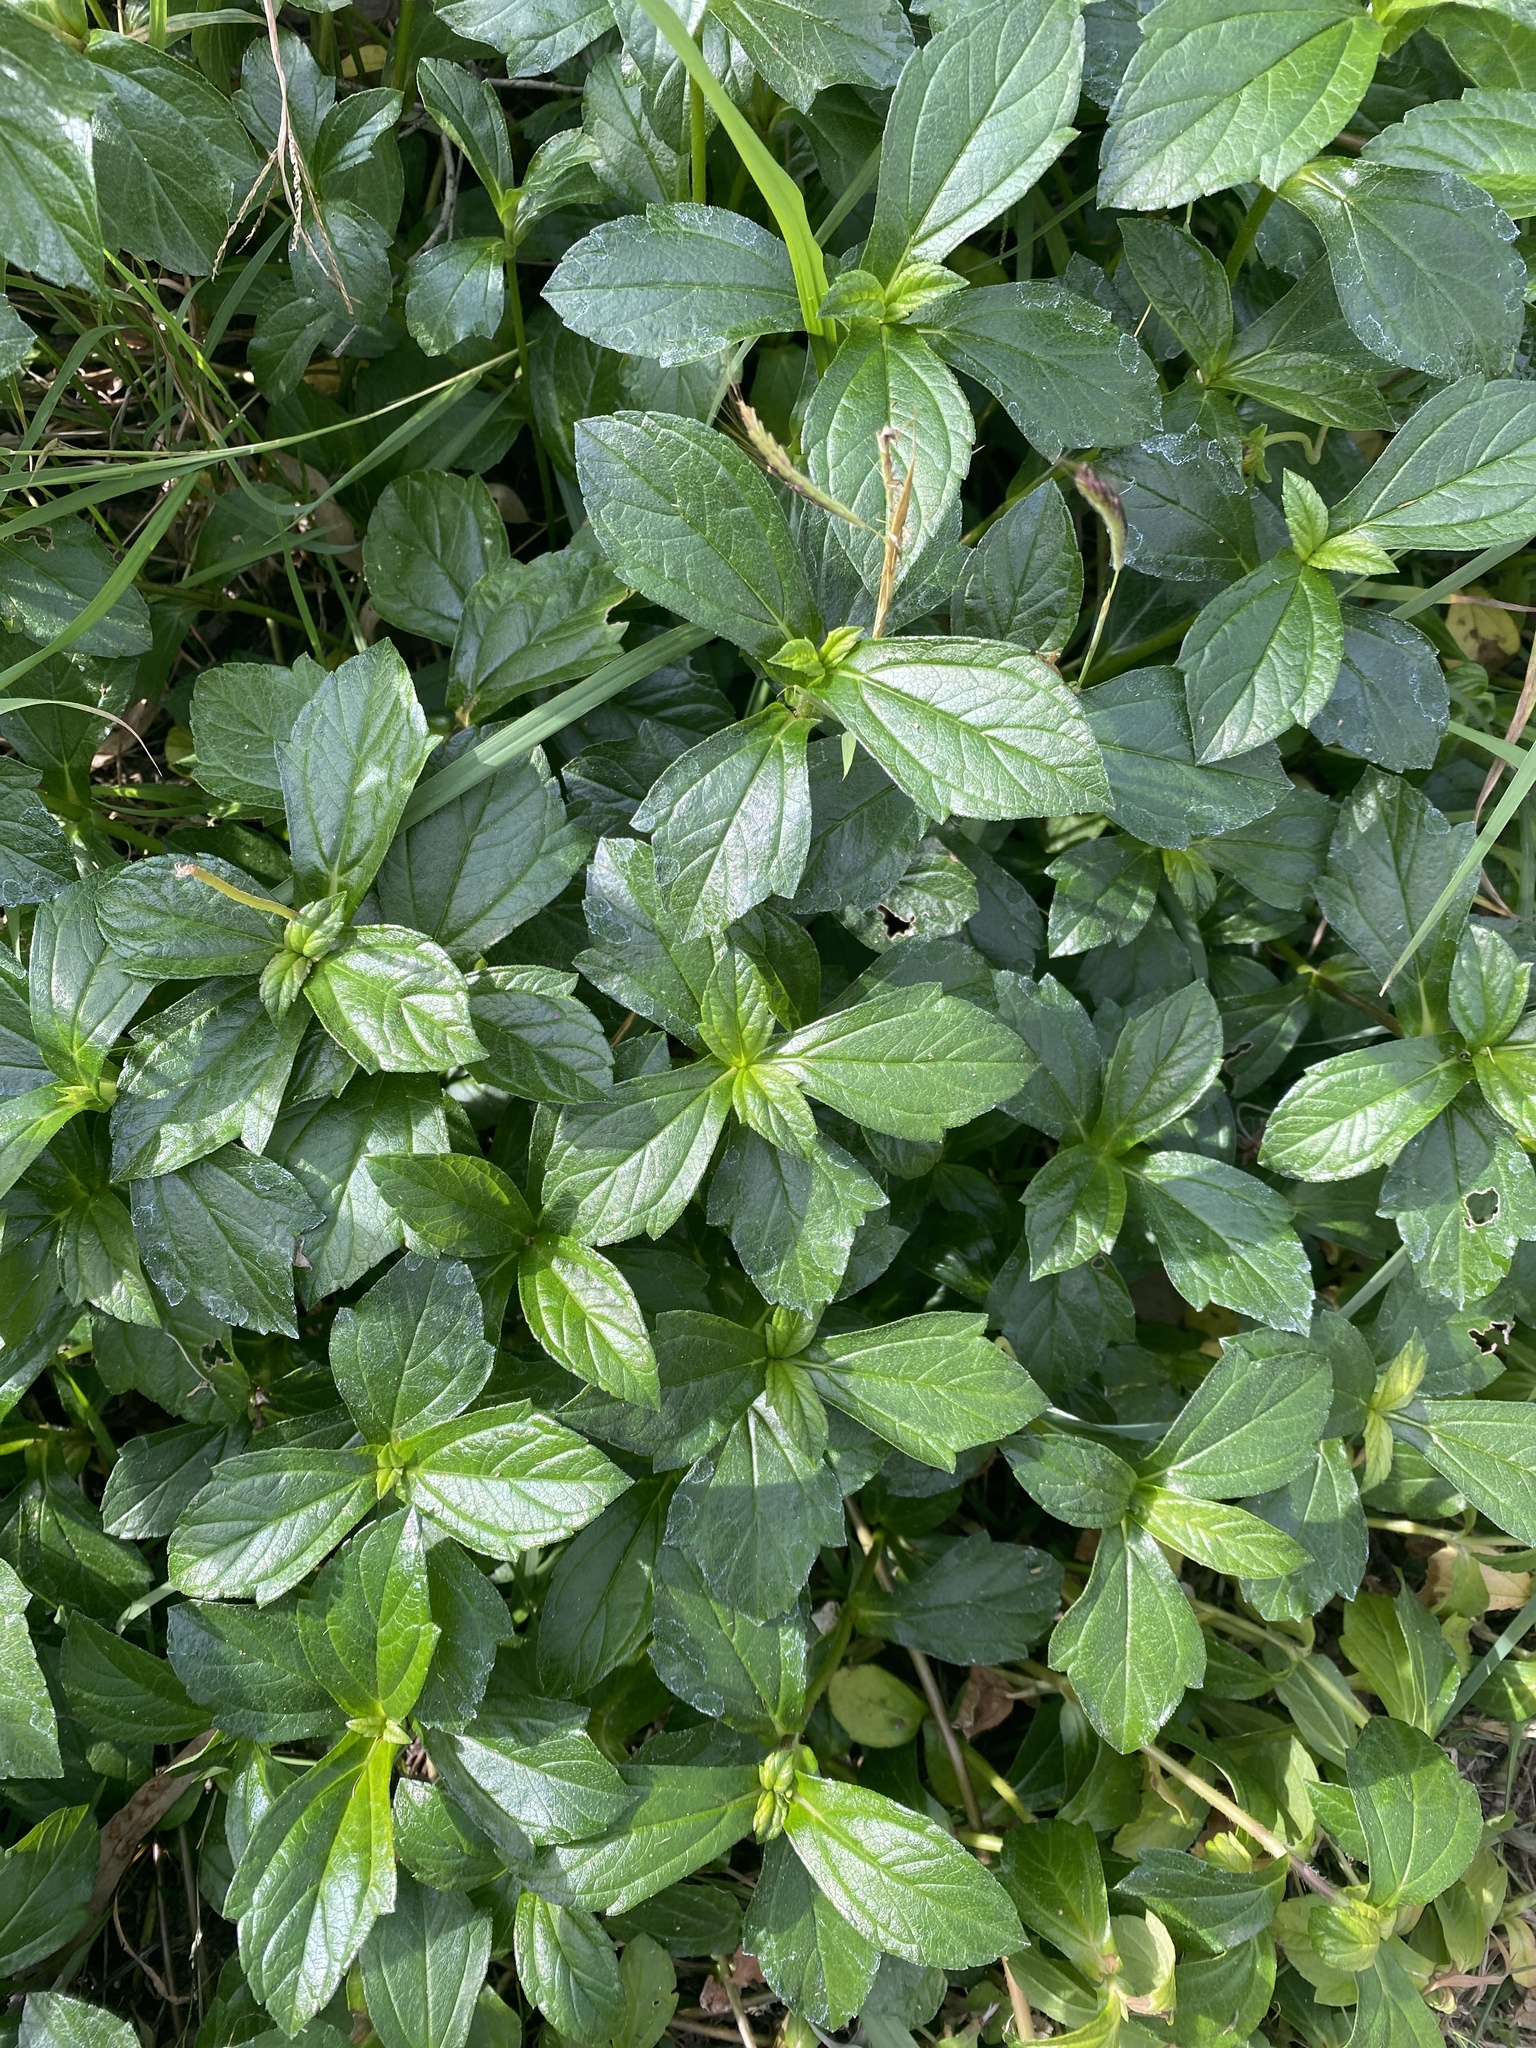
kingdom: Plantae
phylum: Tracheophyta
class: Magnoliopsida
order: Asterales
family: Asteraceae
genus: Sphagneticola
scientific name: Sphagneticola trilobata
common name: Bay biscayne creeping-oxeye
